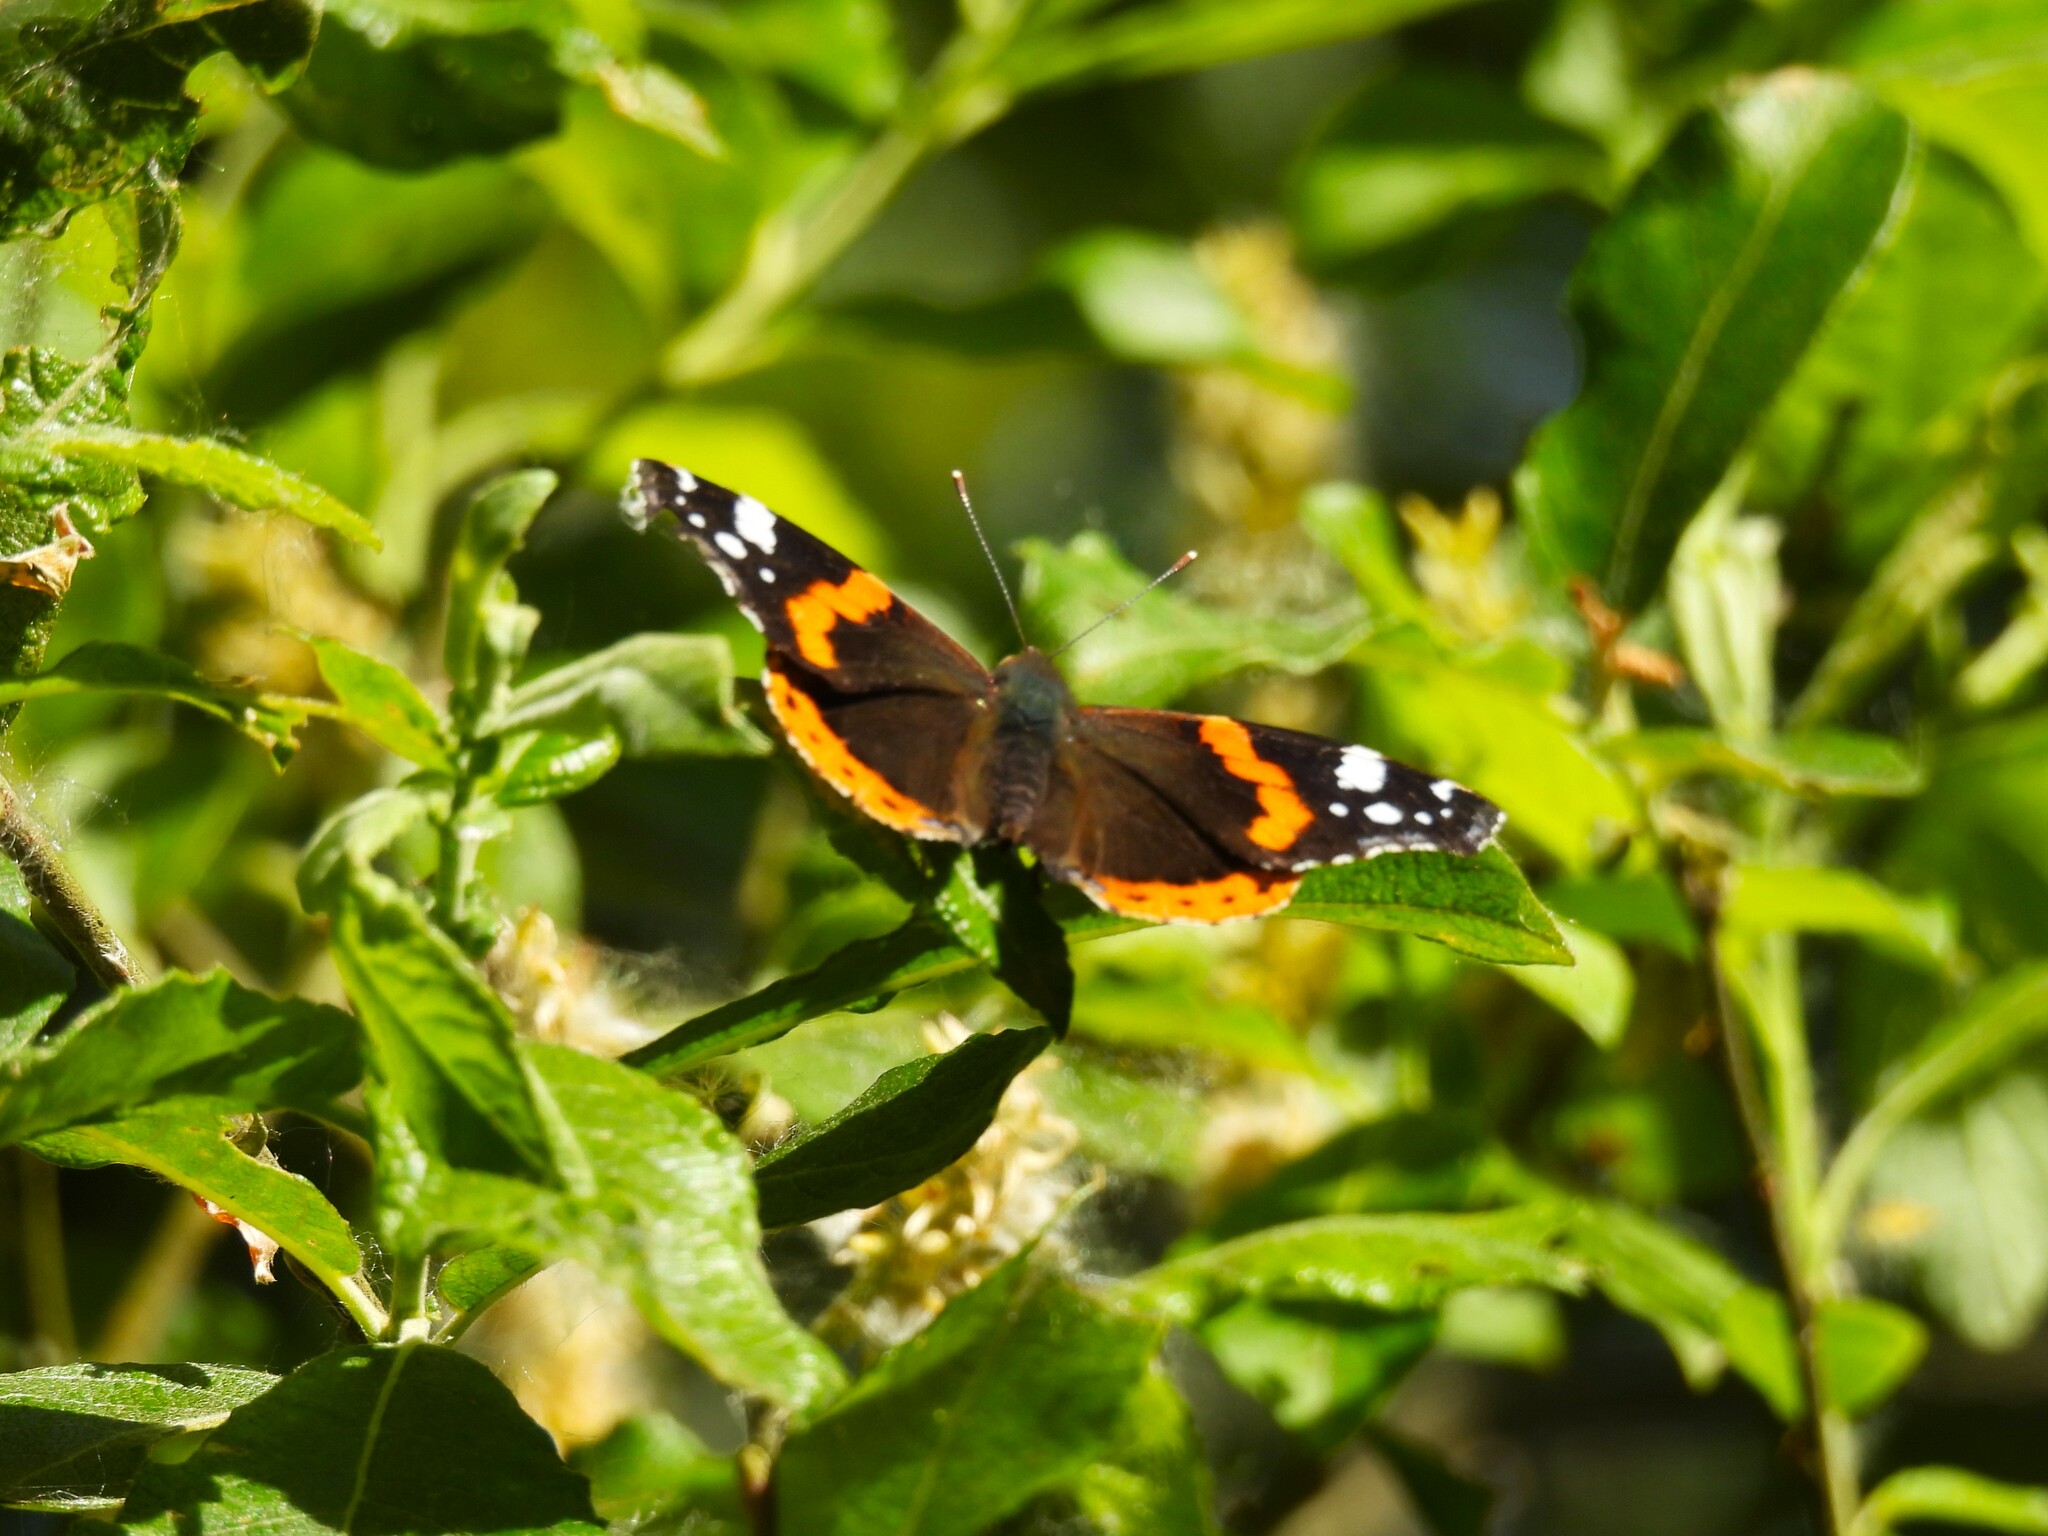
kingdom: Animalia
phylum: Arthropoda
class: Insecta
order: Lepidoptera
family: Nymphalidae
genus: Vanessa
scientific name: Vanessa atalanta
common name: Red admiral
